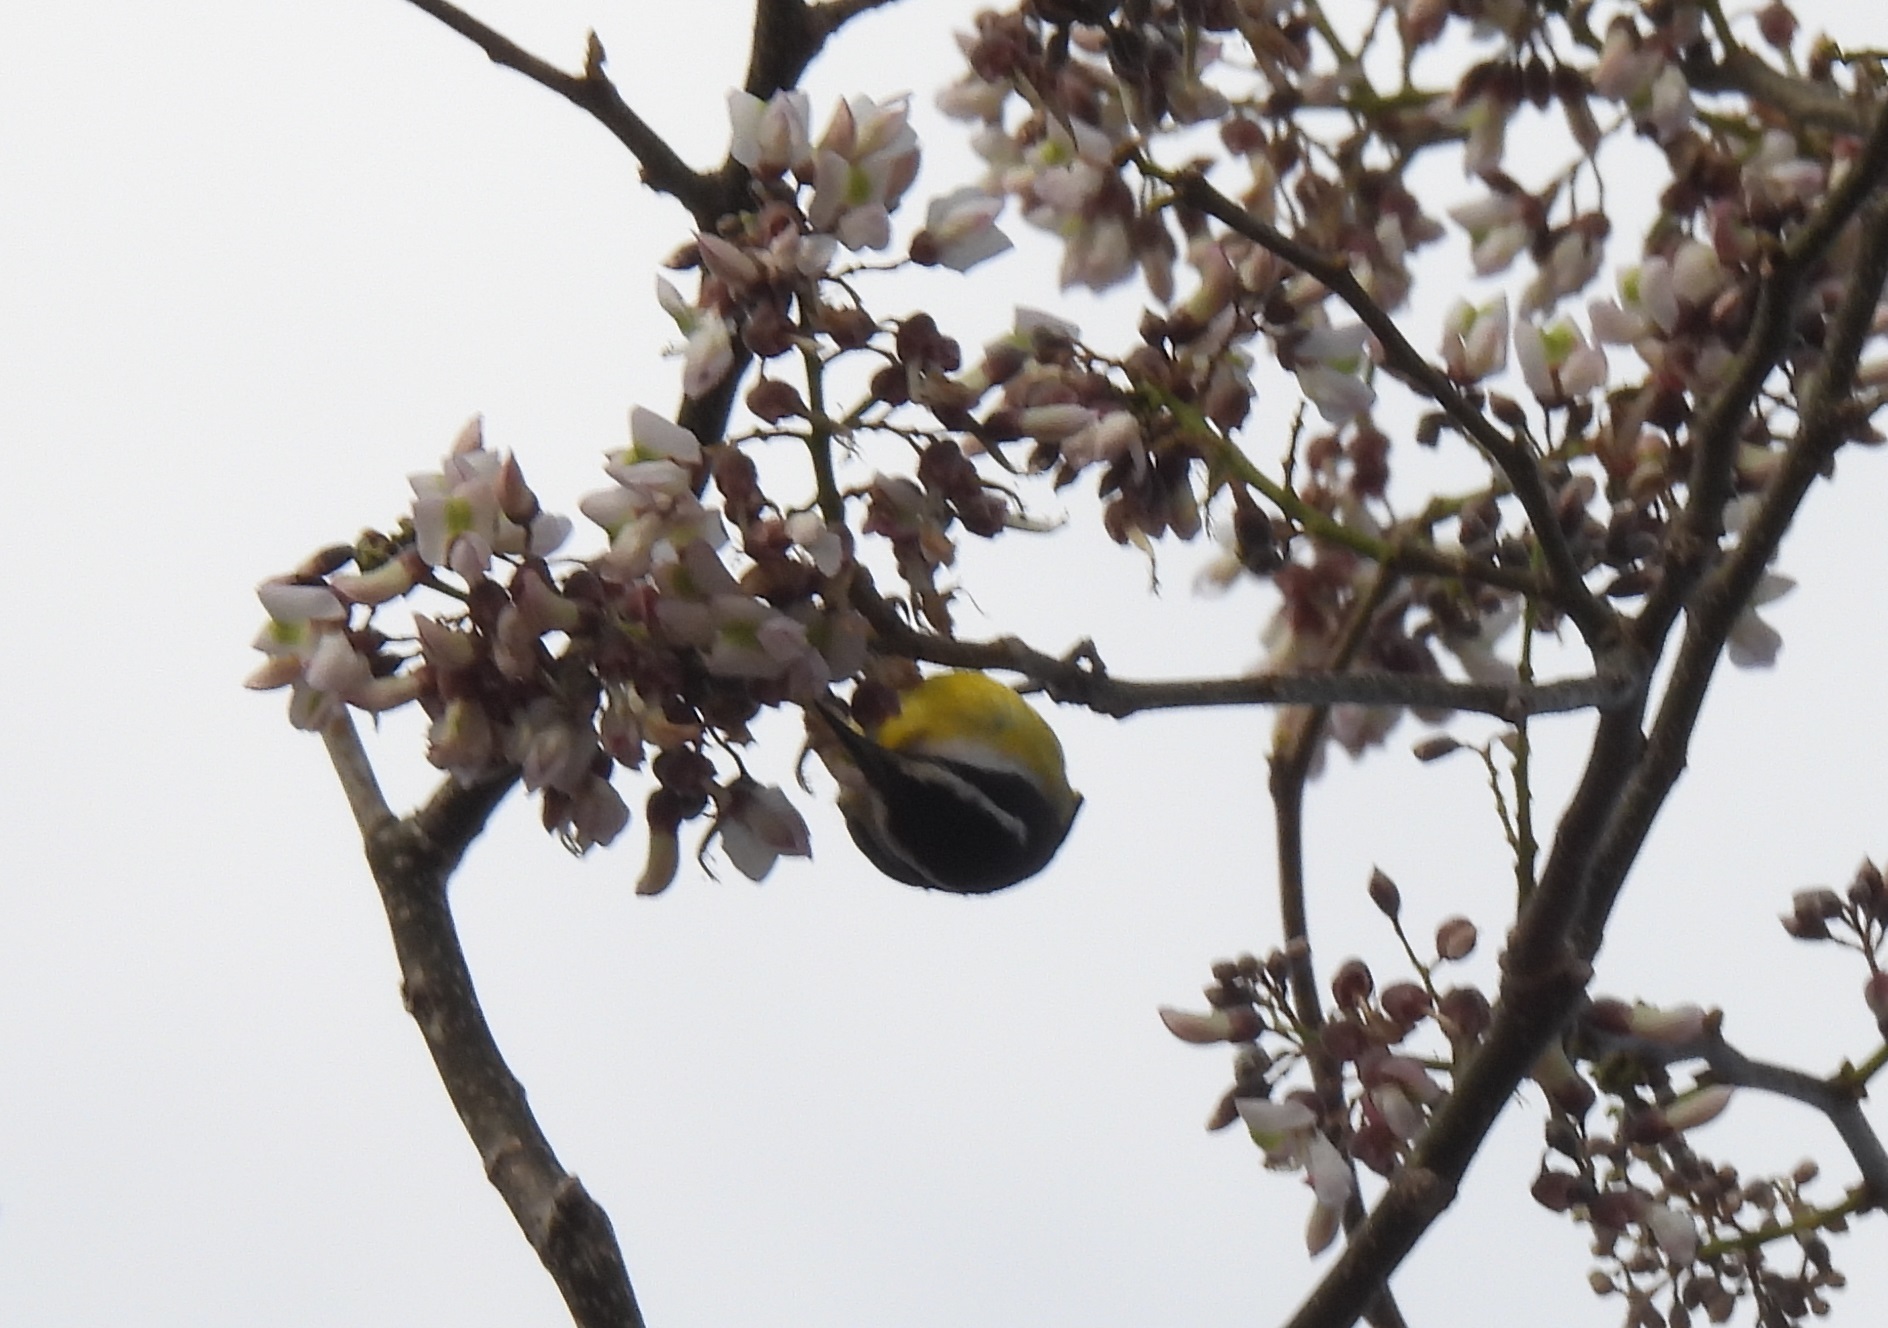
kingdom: Animalia
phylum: Chordata
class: Aves
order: Passeriformes
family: Thraupidae
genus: Coereba
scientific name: Coereba flaveola
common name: Bananaquit
